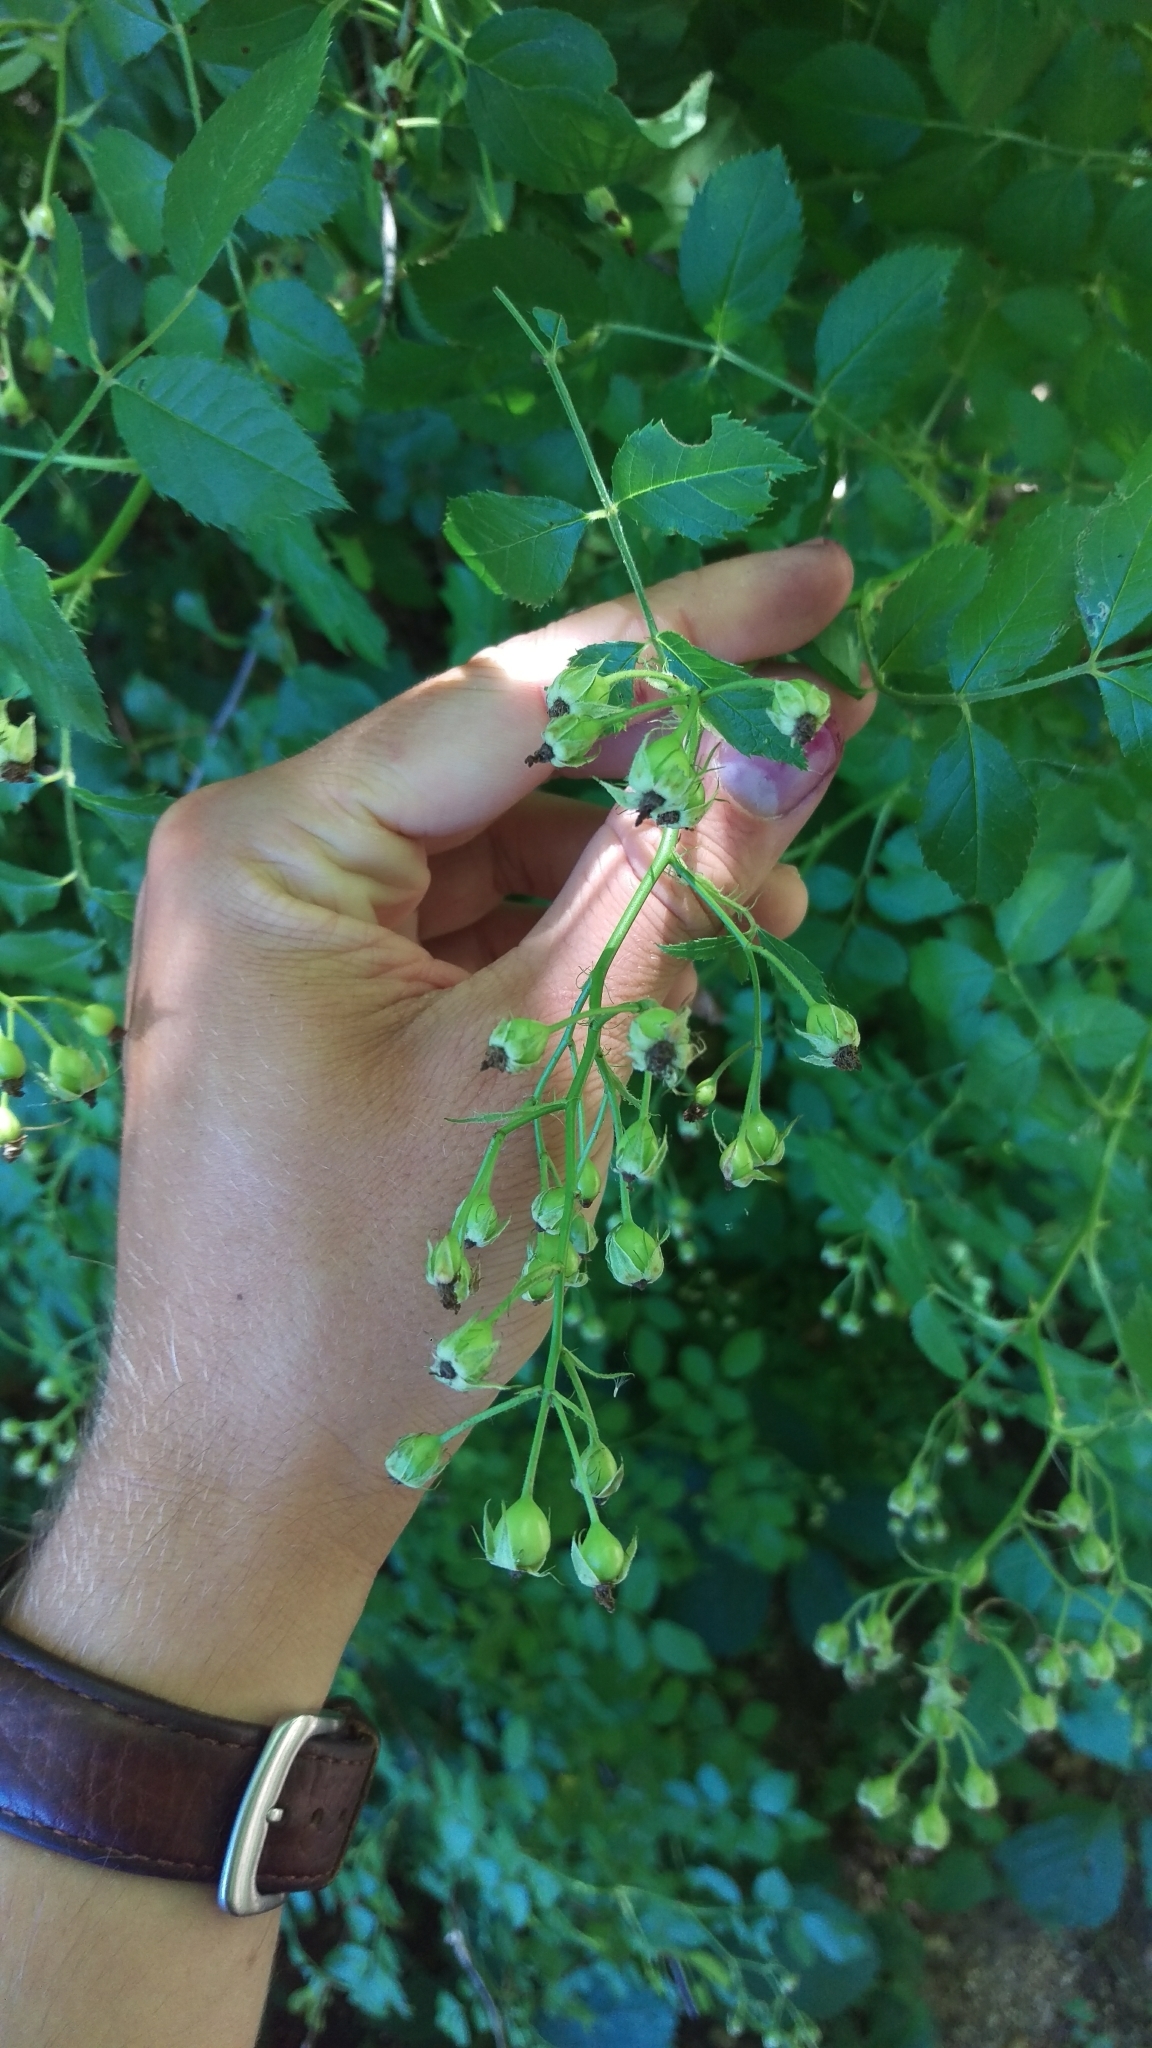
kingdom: Plantae
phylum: Tracheophyta
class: Magnoliopsida
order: Rosales
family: Rosaceae
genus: Rosa
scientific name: Rosa multiflora
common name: Multiflora rose
